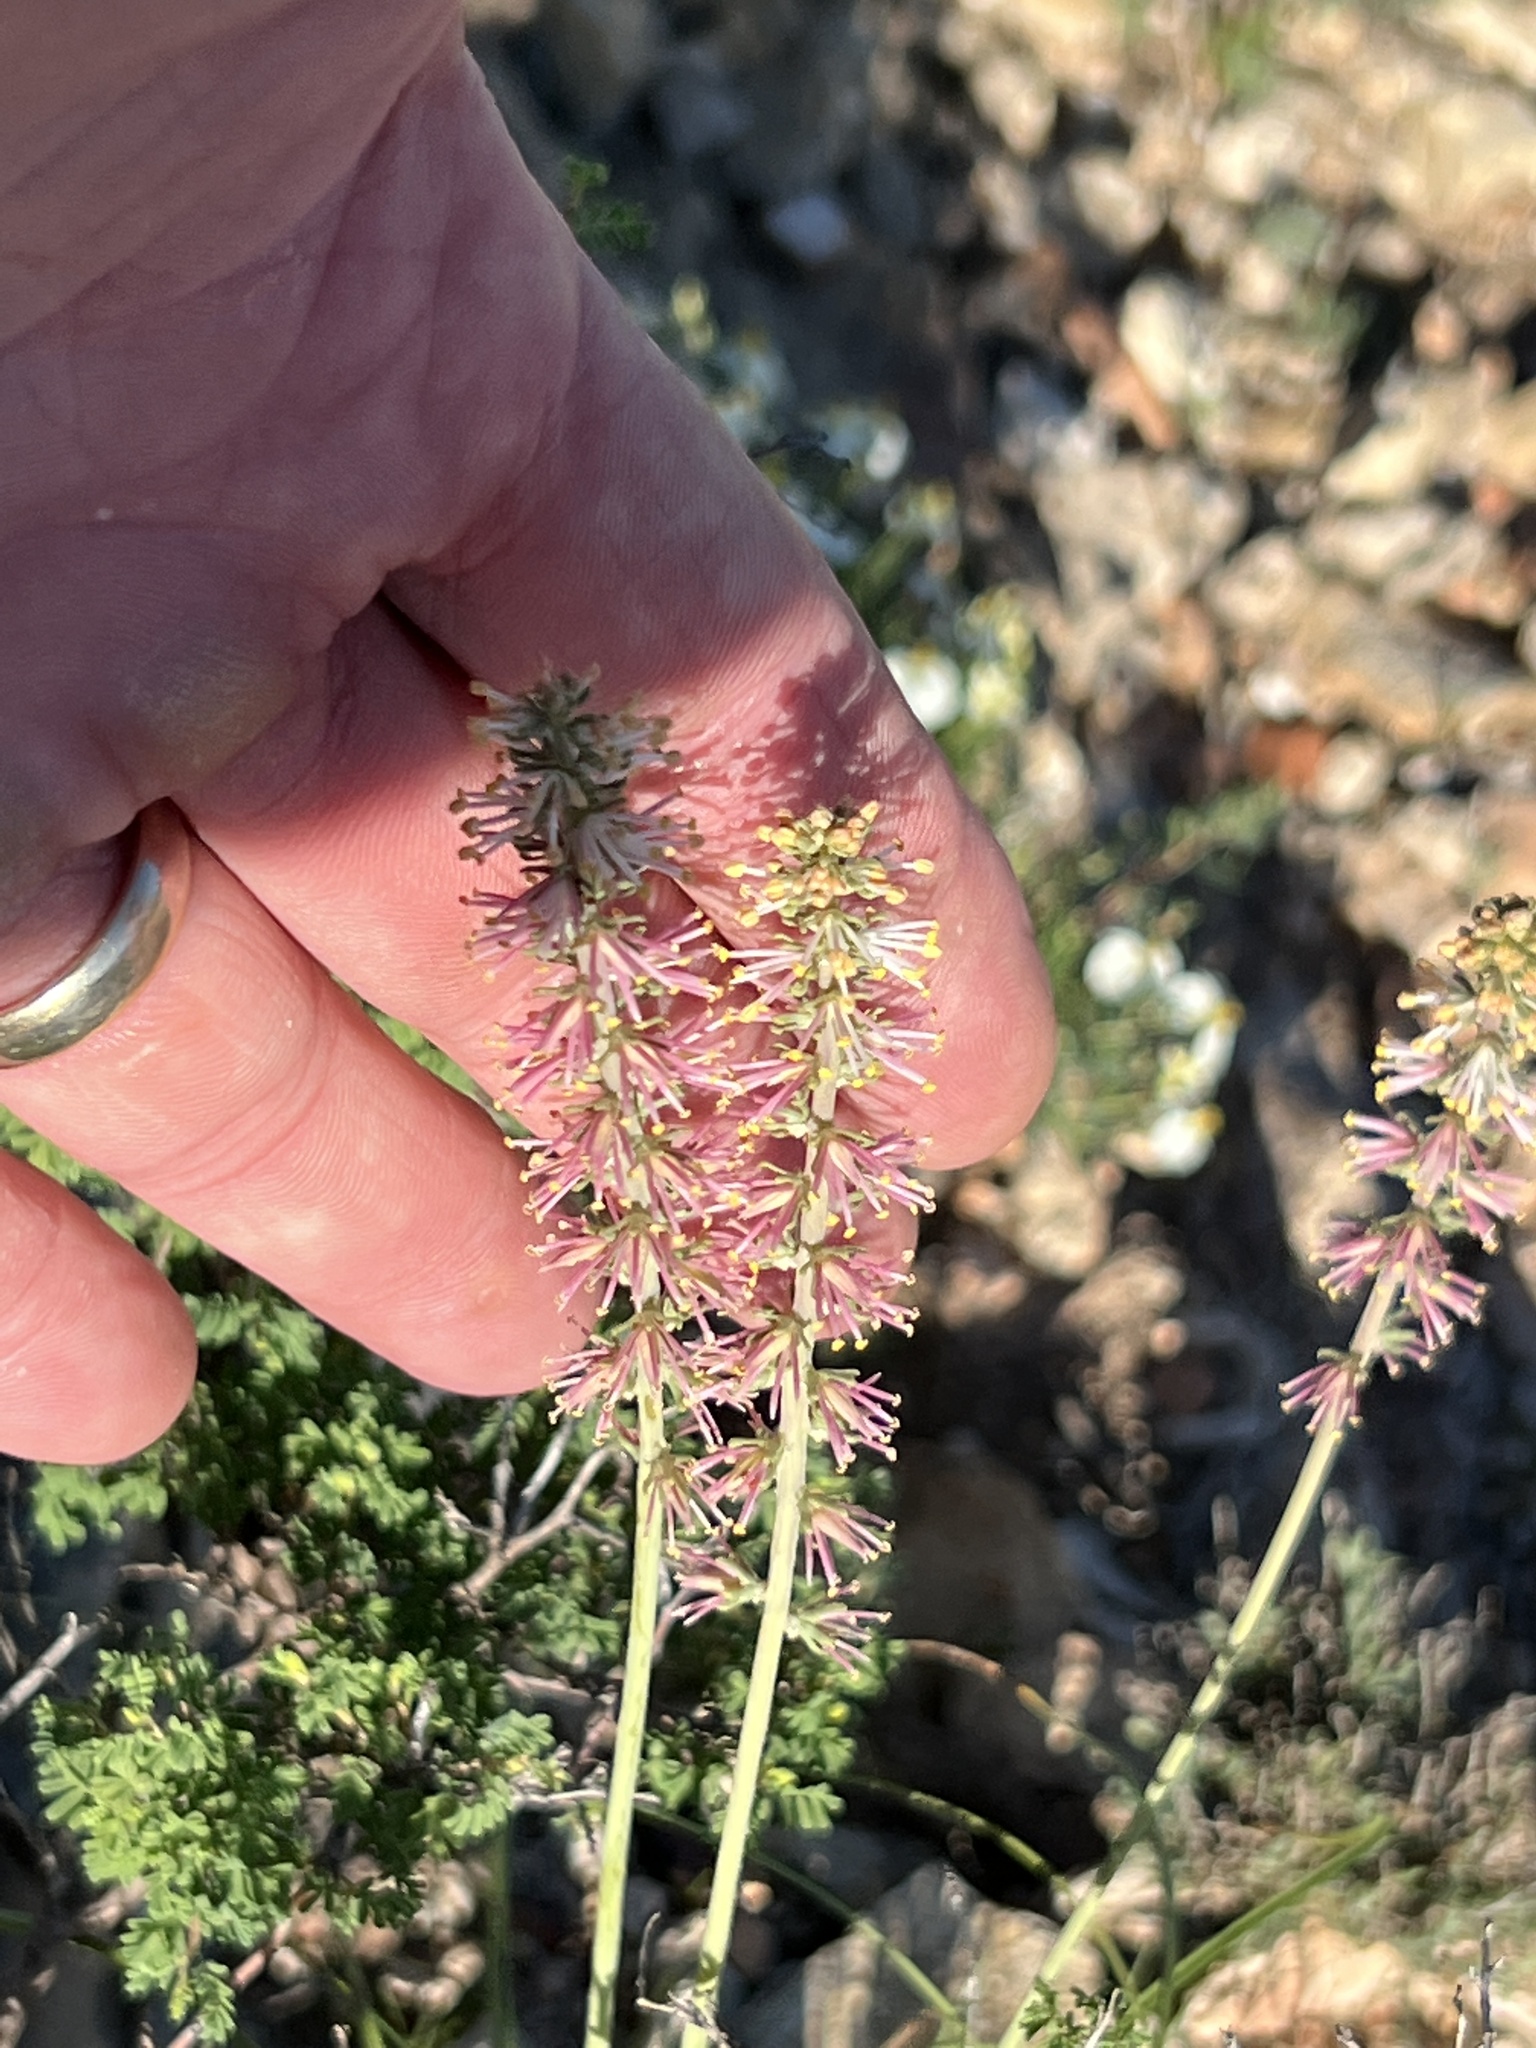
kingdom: Plantae
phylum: Tracheophyta
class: Liliopsida
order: Liliales
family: Melanthiaceae
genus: Schoenocaulon
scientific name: Schoenocaulon texanum
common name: Texas feather-shank
